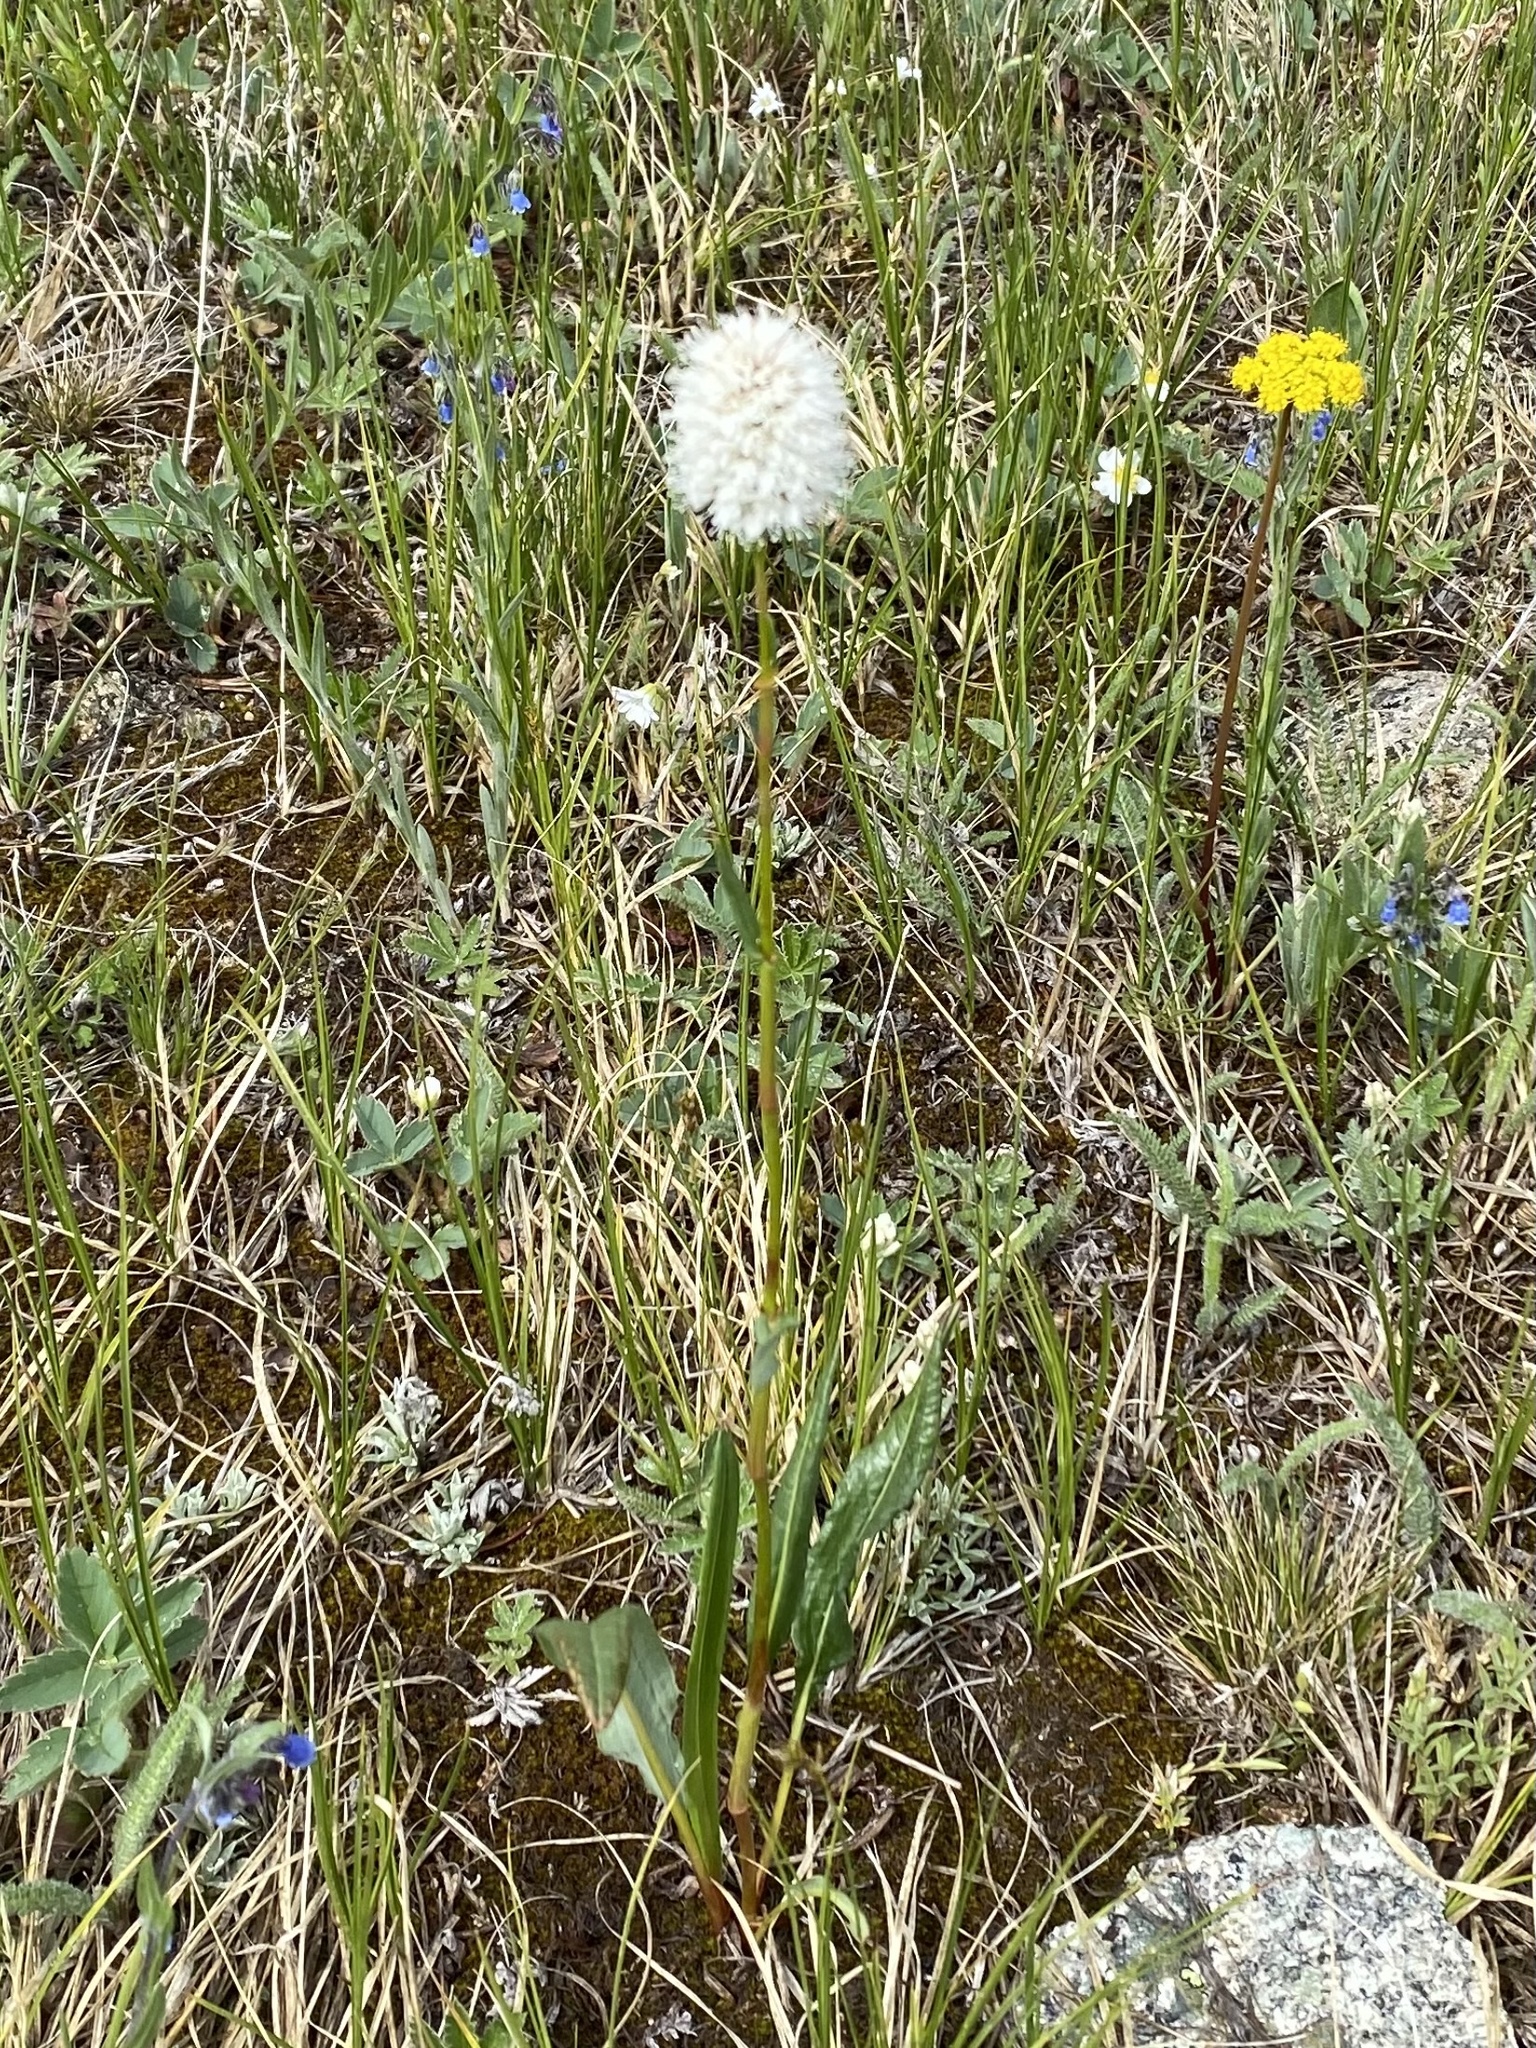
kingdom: Plantae
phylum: Tracheophyta
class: Magnoliopsida
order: Caryophyllales
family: Polygonaceae
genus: Bistorta
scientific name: Bistorta bistortoides
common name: American bistort
